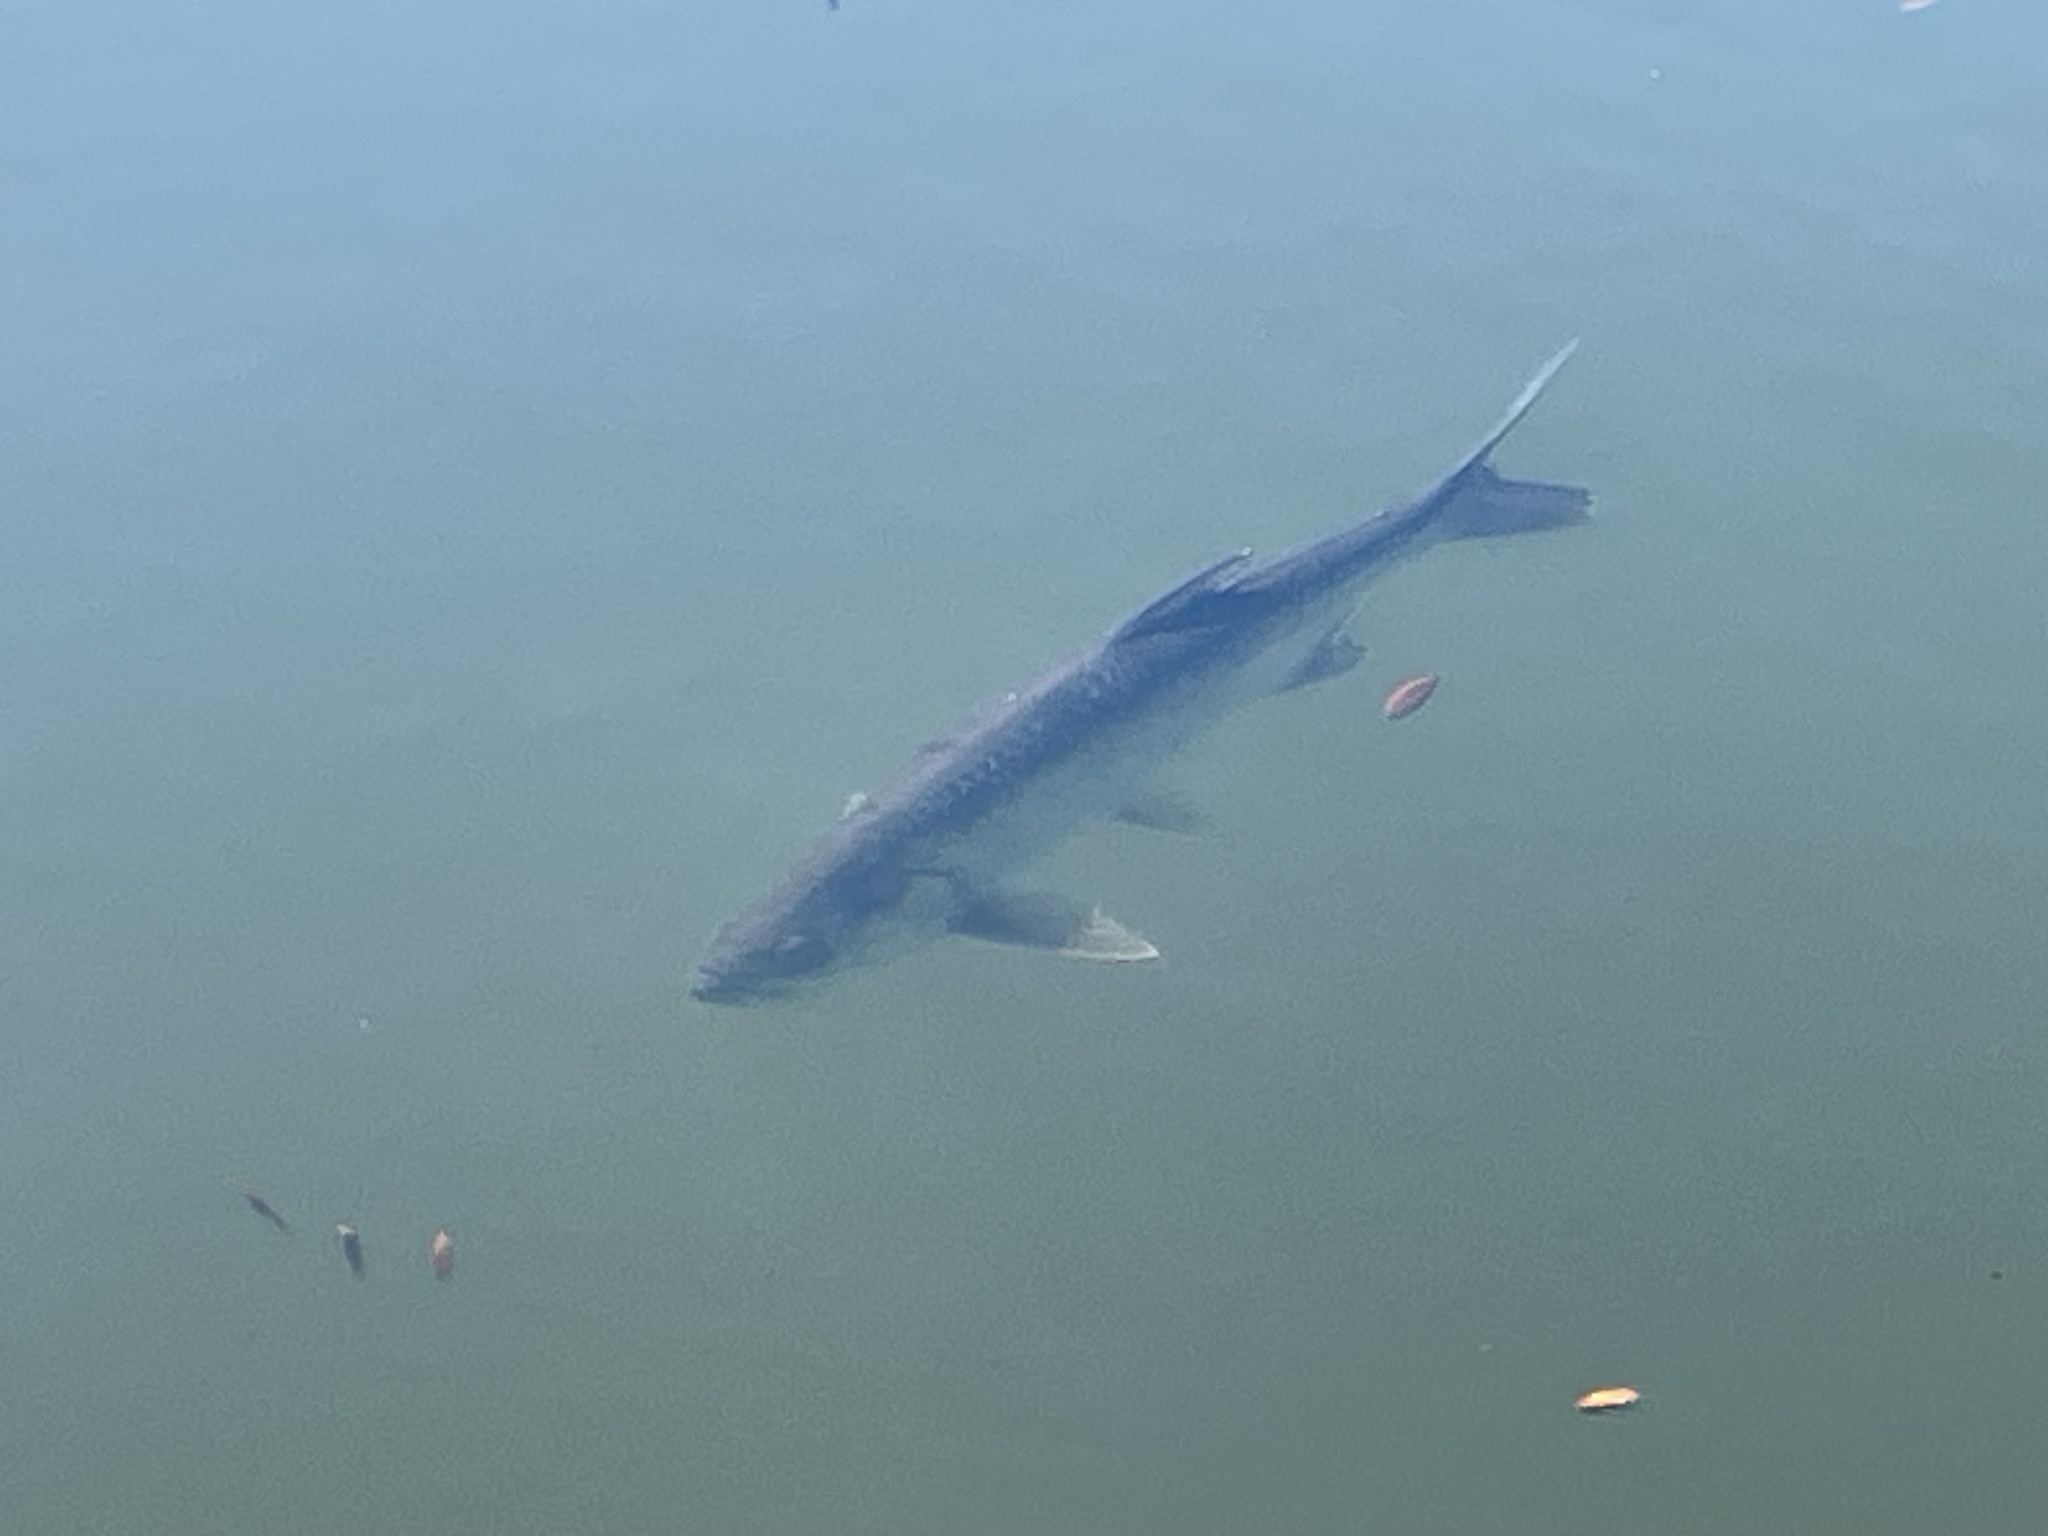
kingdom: Animalia
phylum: Chordata
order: Elopiformes
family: Megalopidae
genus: Megalops
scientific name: Megalops atlanticus
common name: Tarpon
